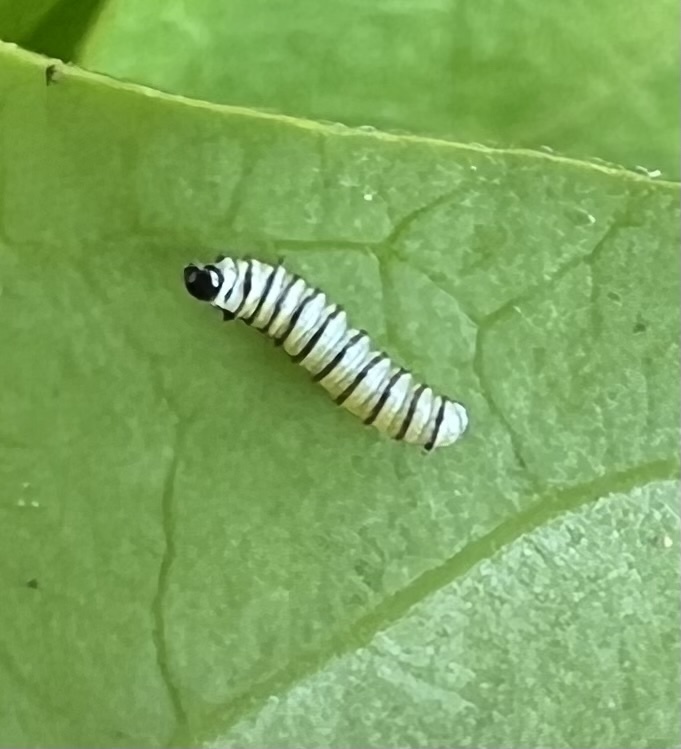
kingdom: Animalia
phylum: Arthropoda
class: Insecta
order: Lepidoptera
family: Nymphalidae
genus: Danaus
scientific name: Danaus plexippus
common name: Monarch
